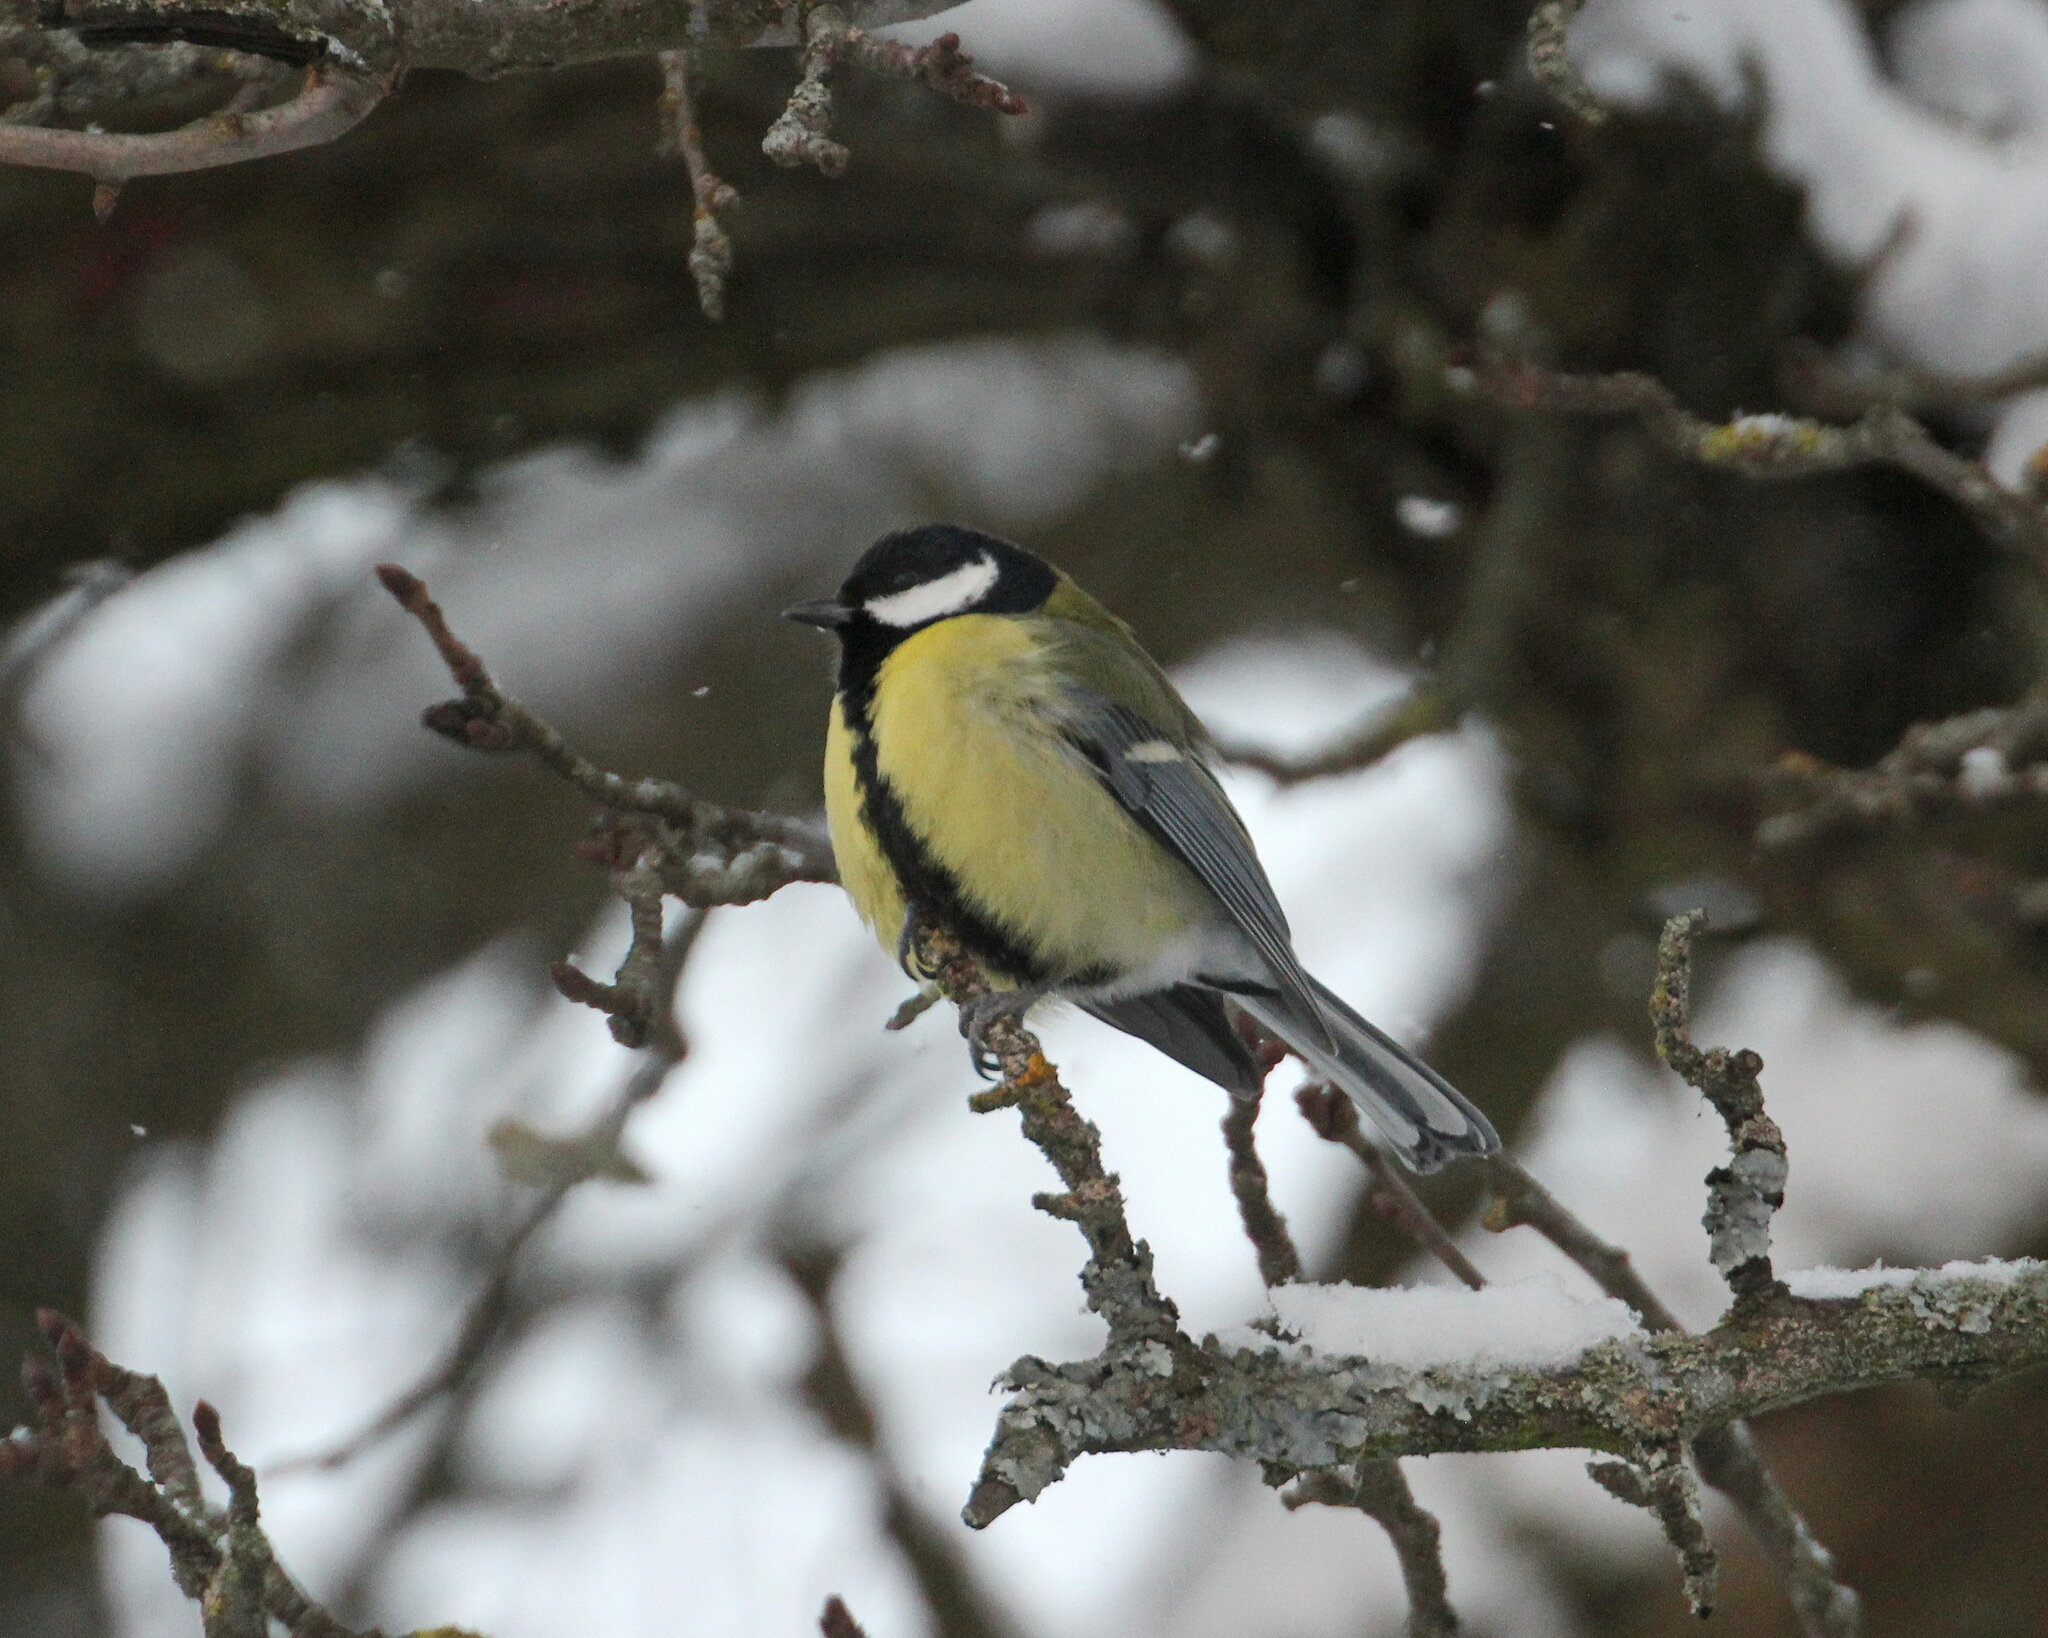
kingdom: Animalia
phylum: Chordata
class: Aves
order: Passeriformes
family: Paridae
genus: Parus
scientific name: Parus major
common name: Great tit
